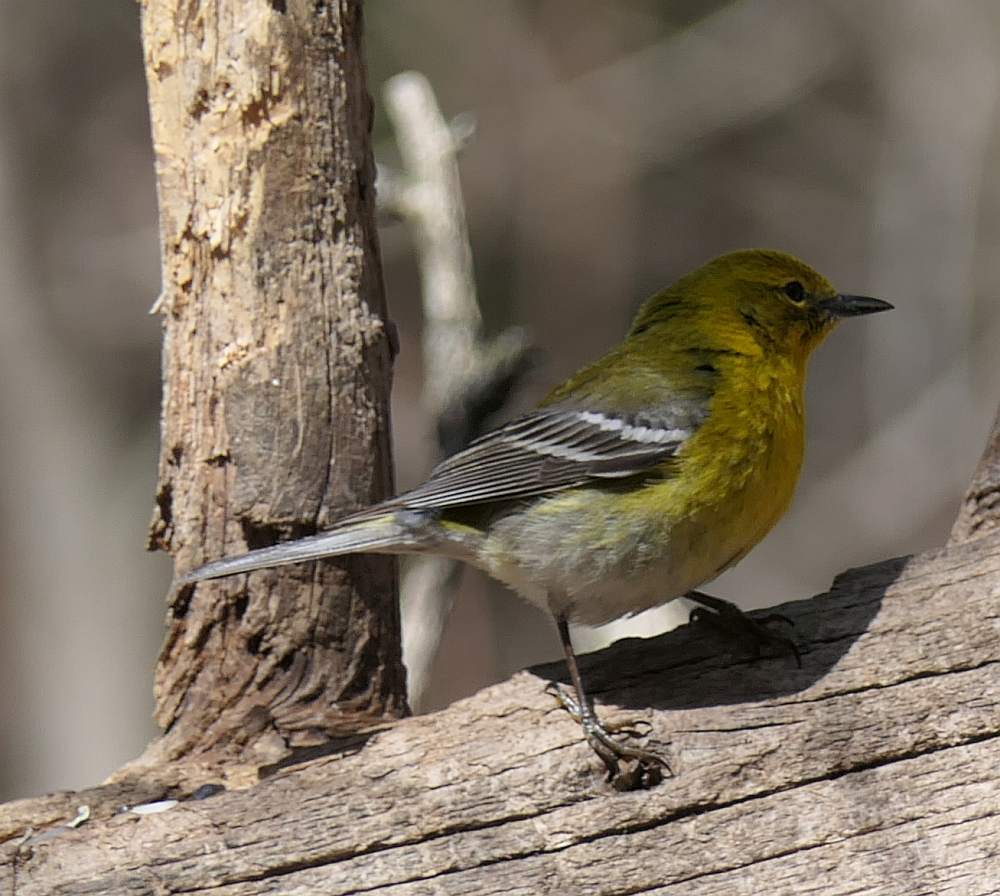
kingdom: Animalia
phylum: Chordata
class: Aves
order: Passeriformes
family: Parulidae
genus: Setophaga
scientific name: Setophaga pinus
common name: Pine warbler
